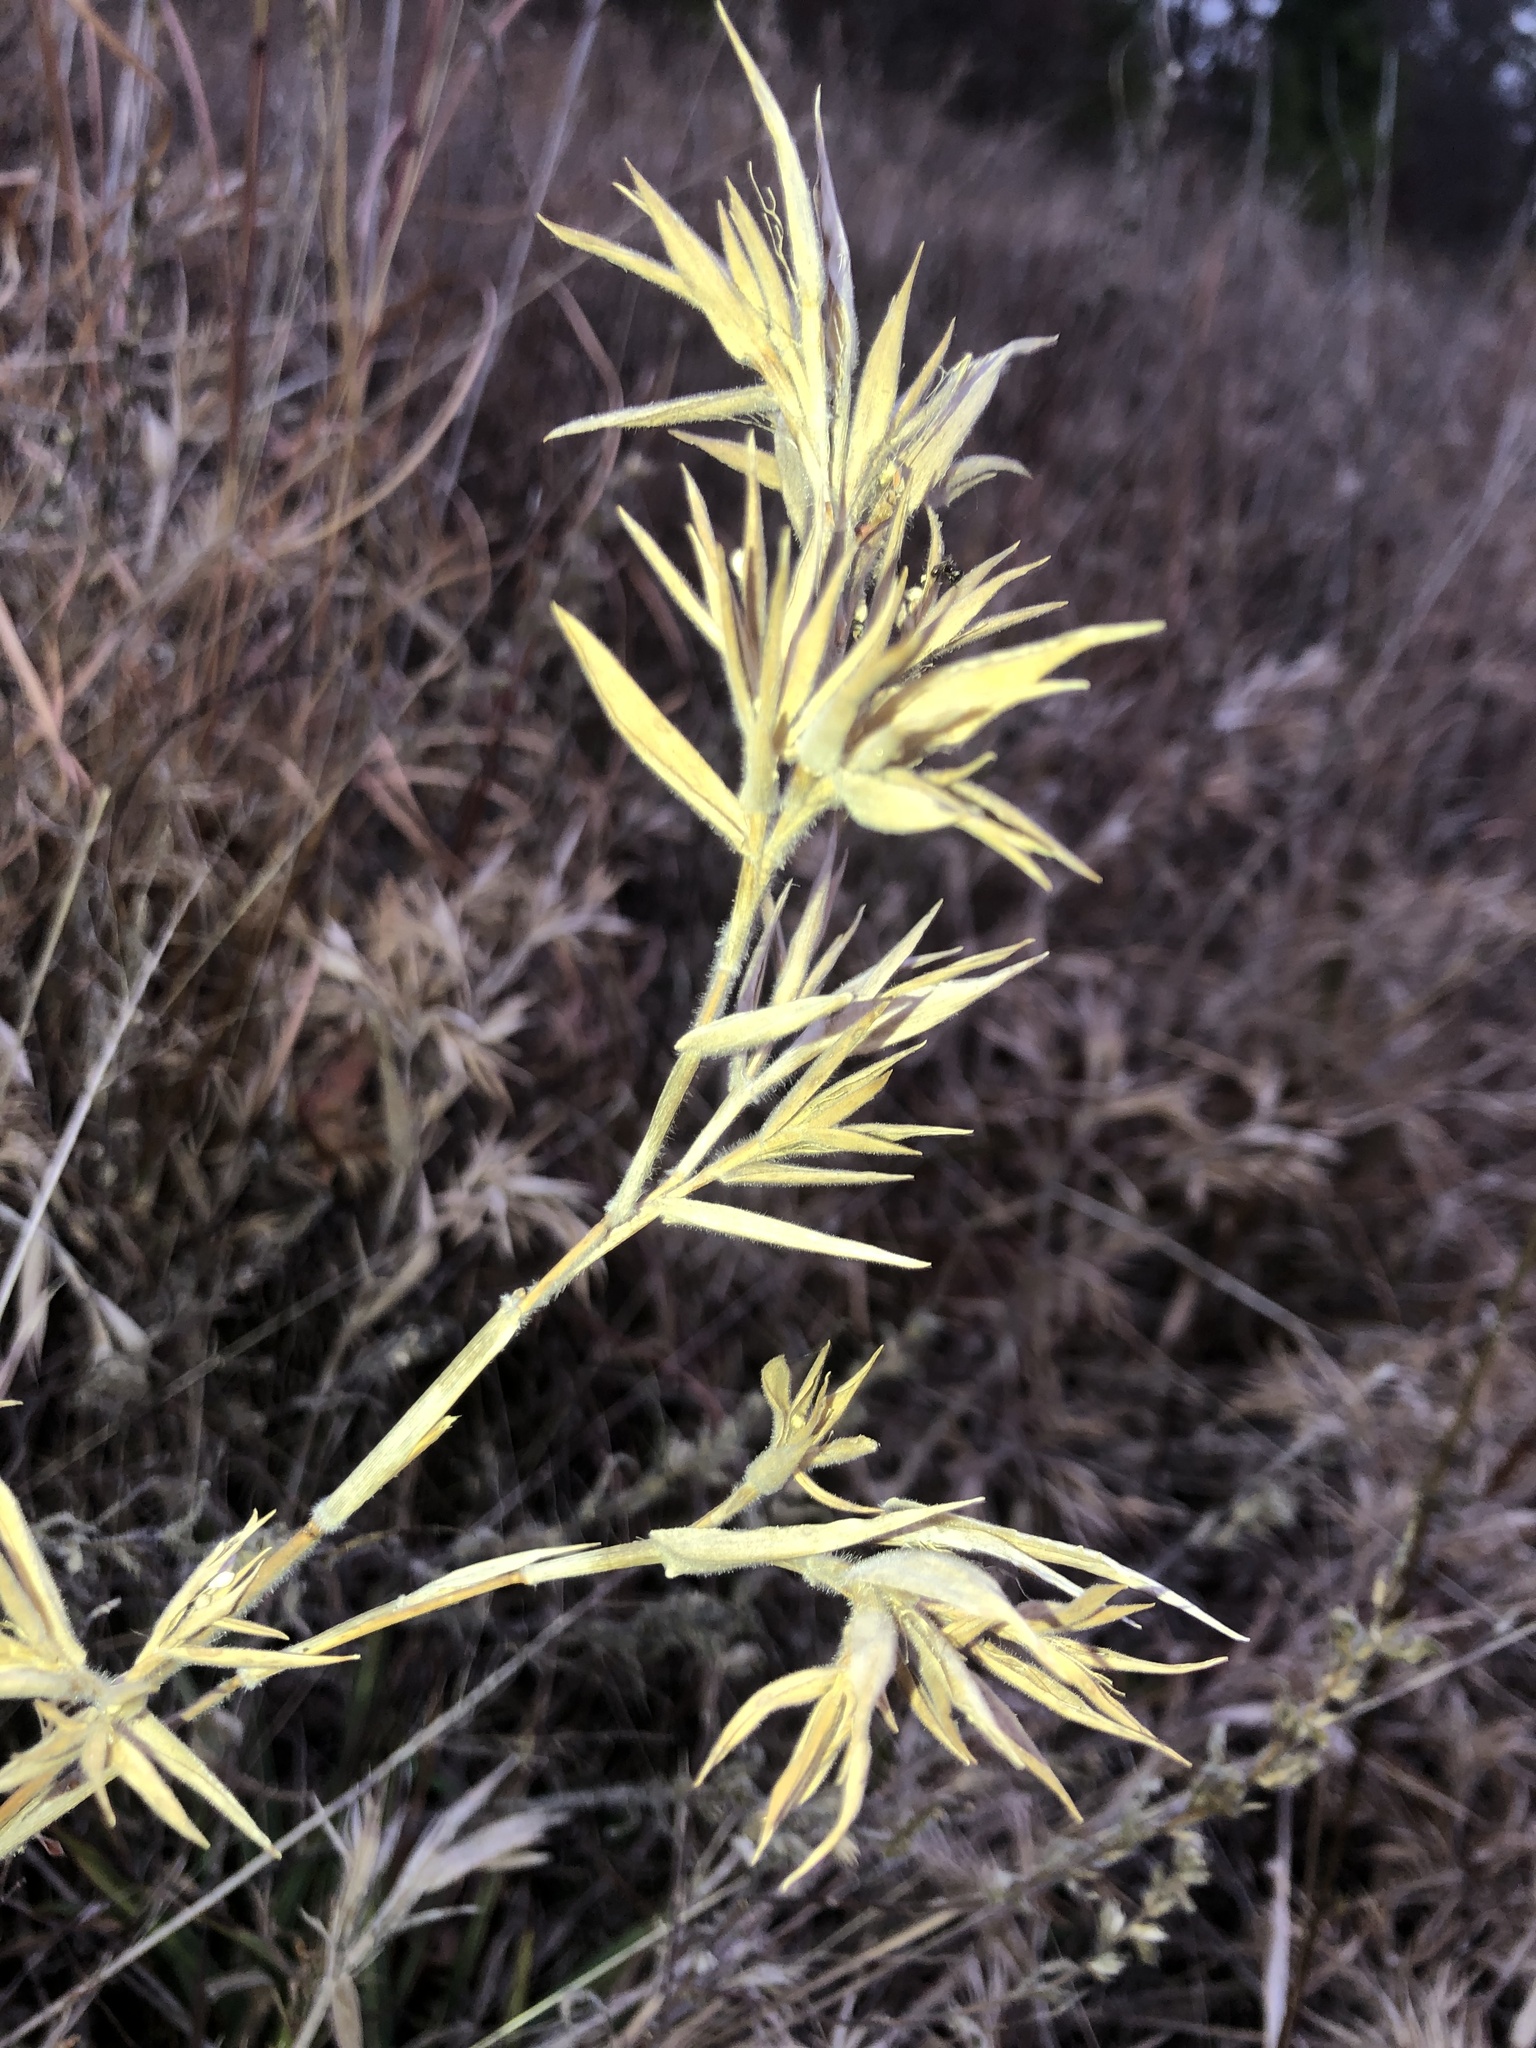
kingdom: Plantae
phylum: Tracheophyta
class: Liliopsida
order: Poales
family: Poaceae
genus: Dichanthelium
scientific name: Dichanthelium scoparium
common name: Velvety panic grass
